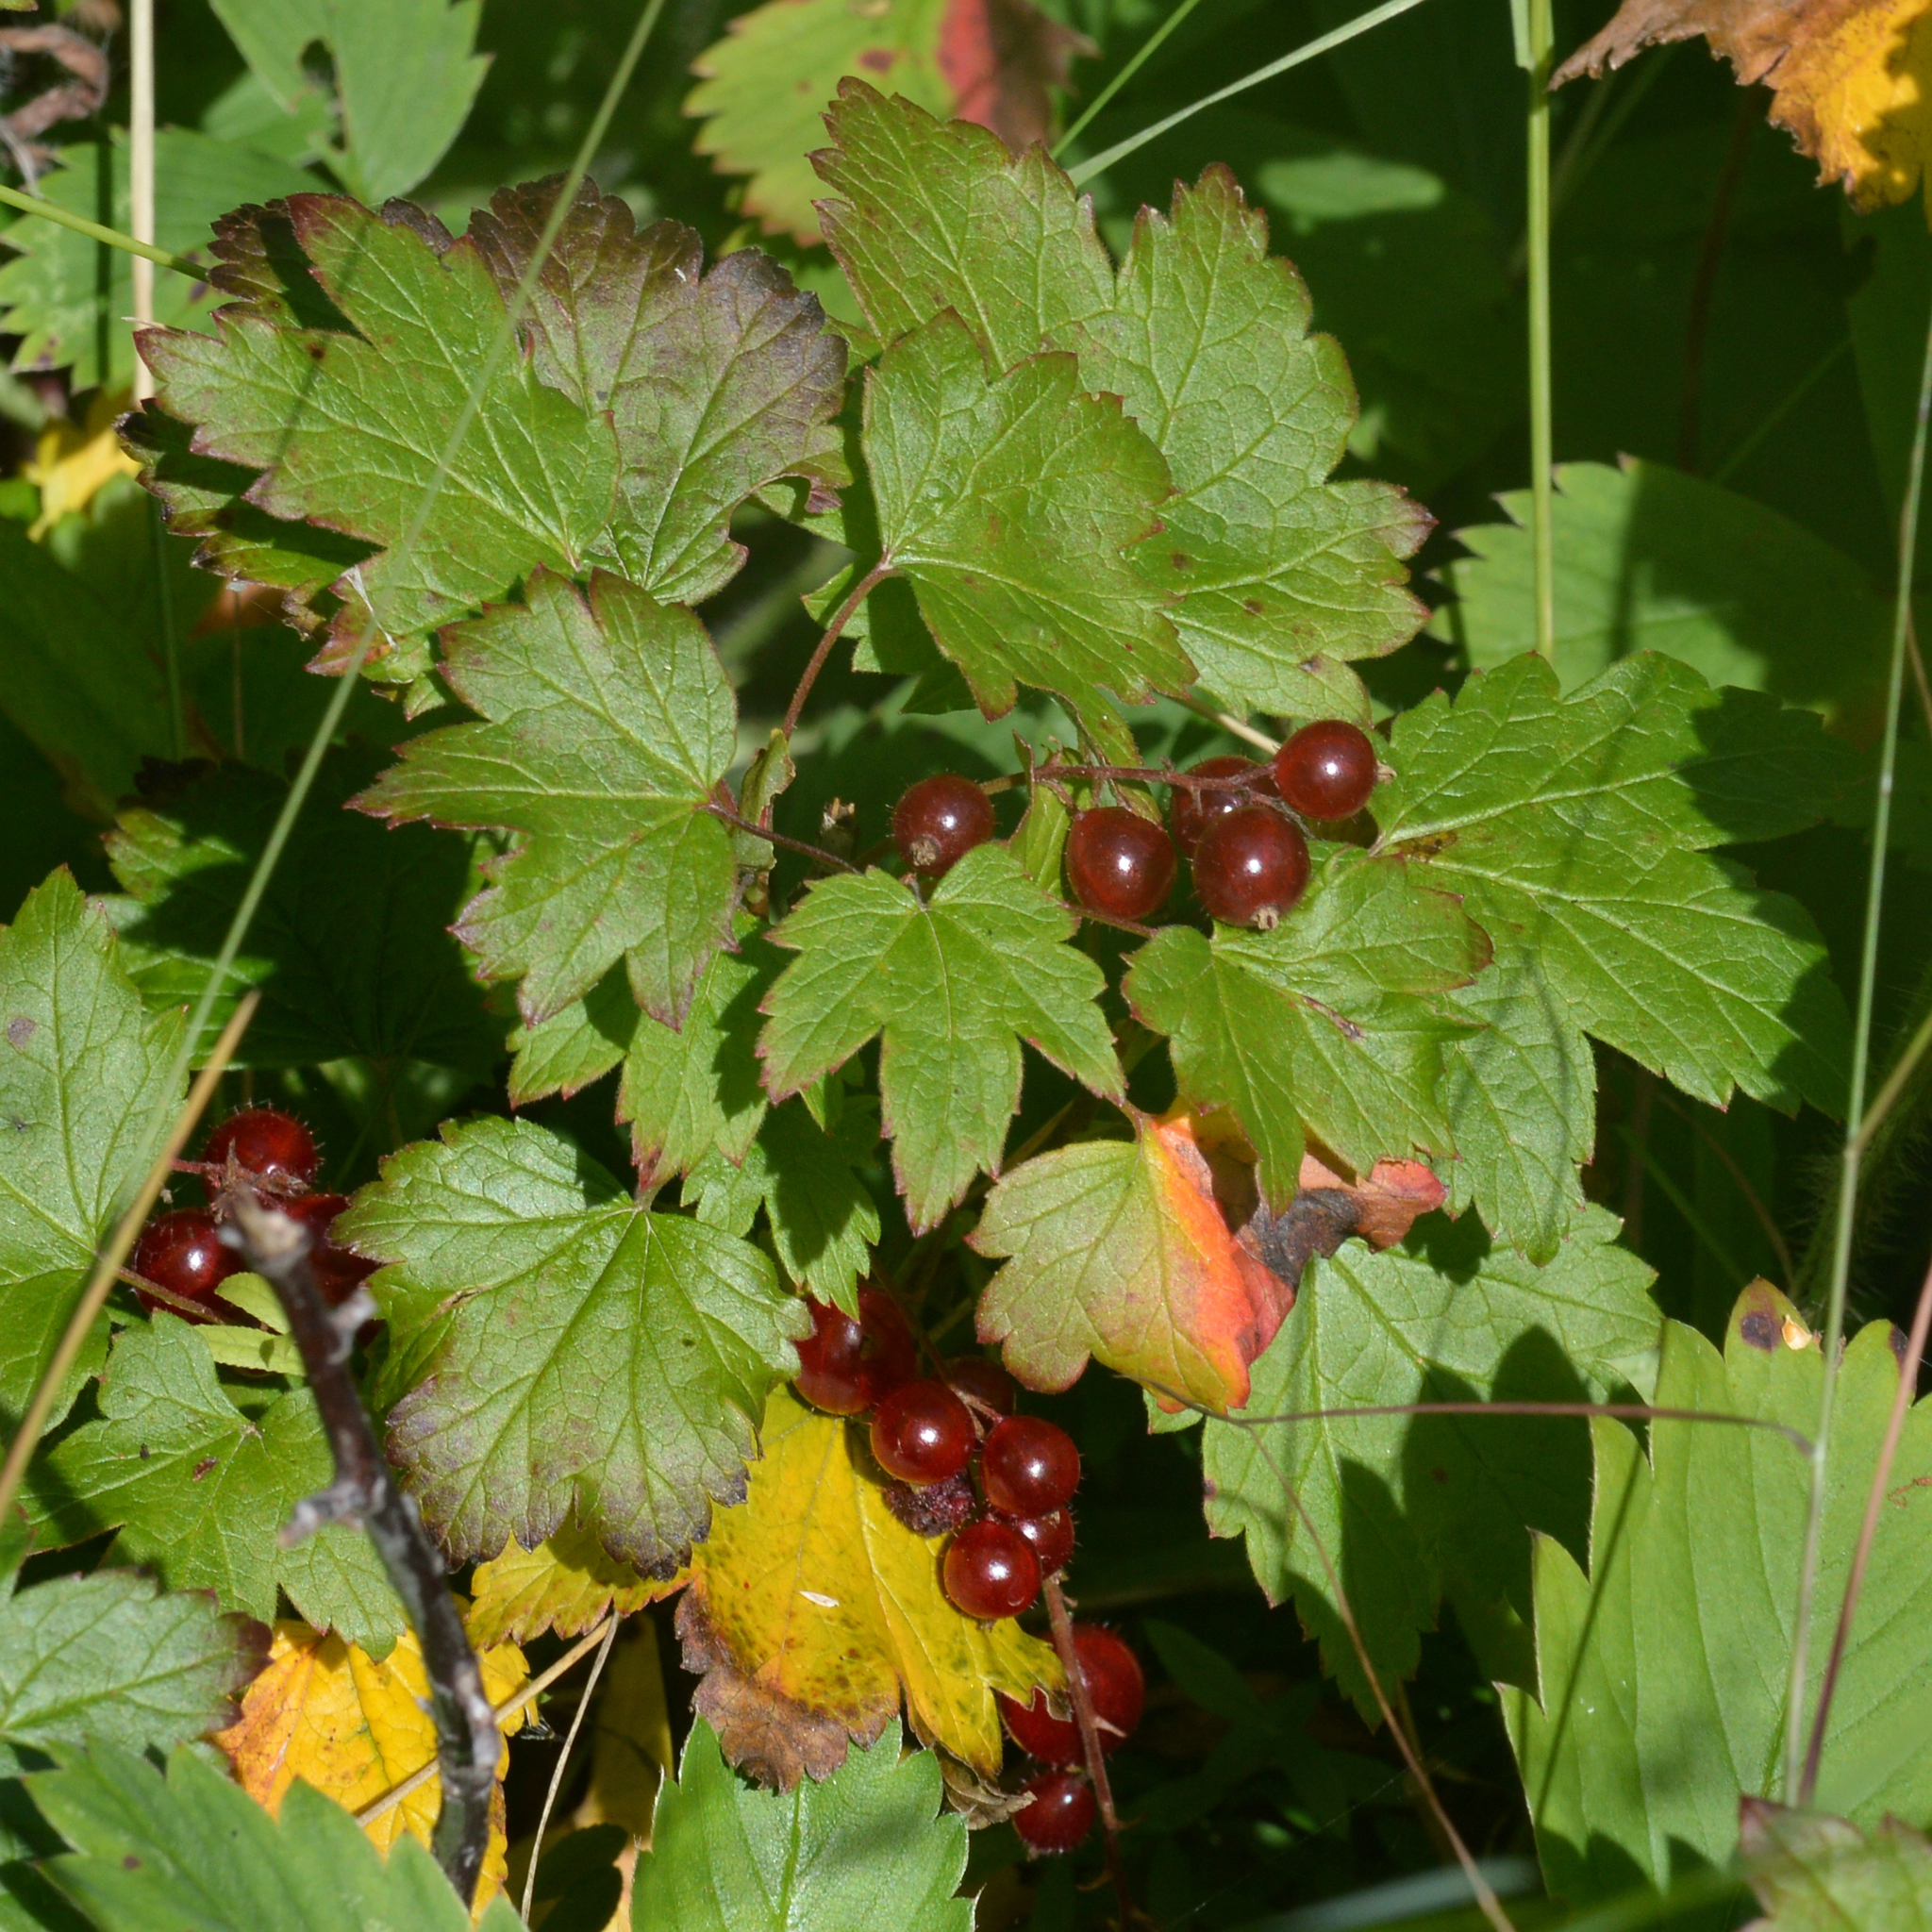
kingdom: Plantae
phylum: Tracheophyta
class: Magnoliopsida
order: Saxifragales
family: Grossulariaceae
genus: Ribes
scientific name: Ribes glandulosum
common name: Skunk currant
